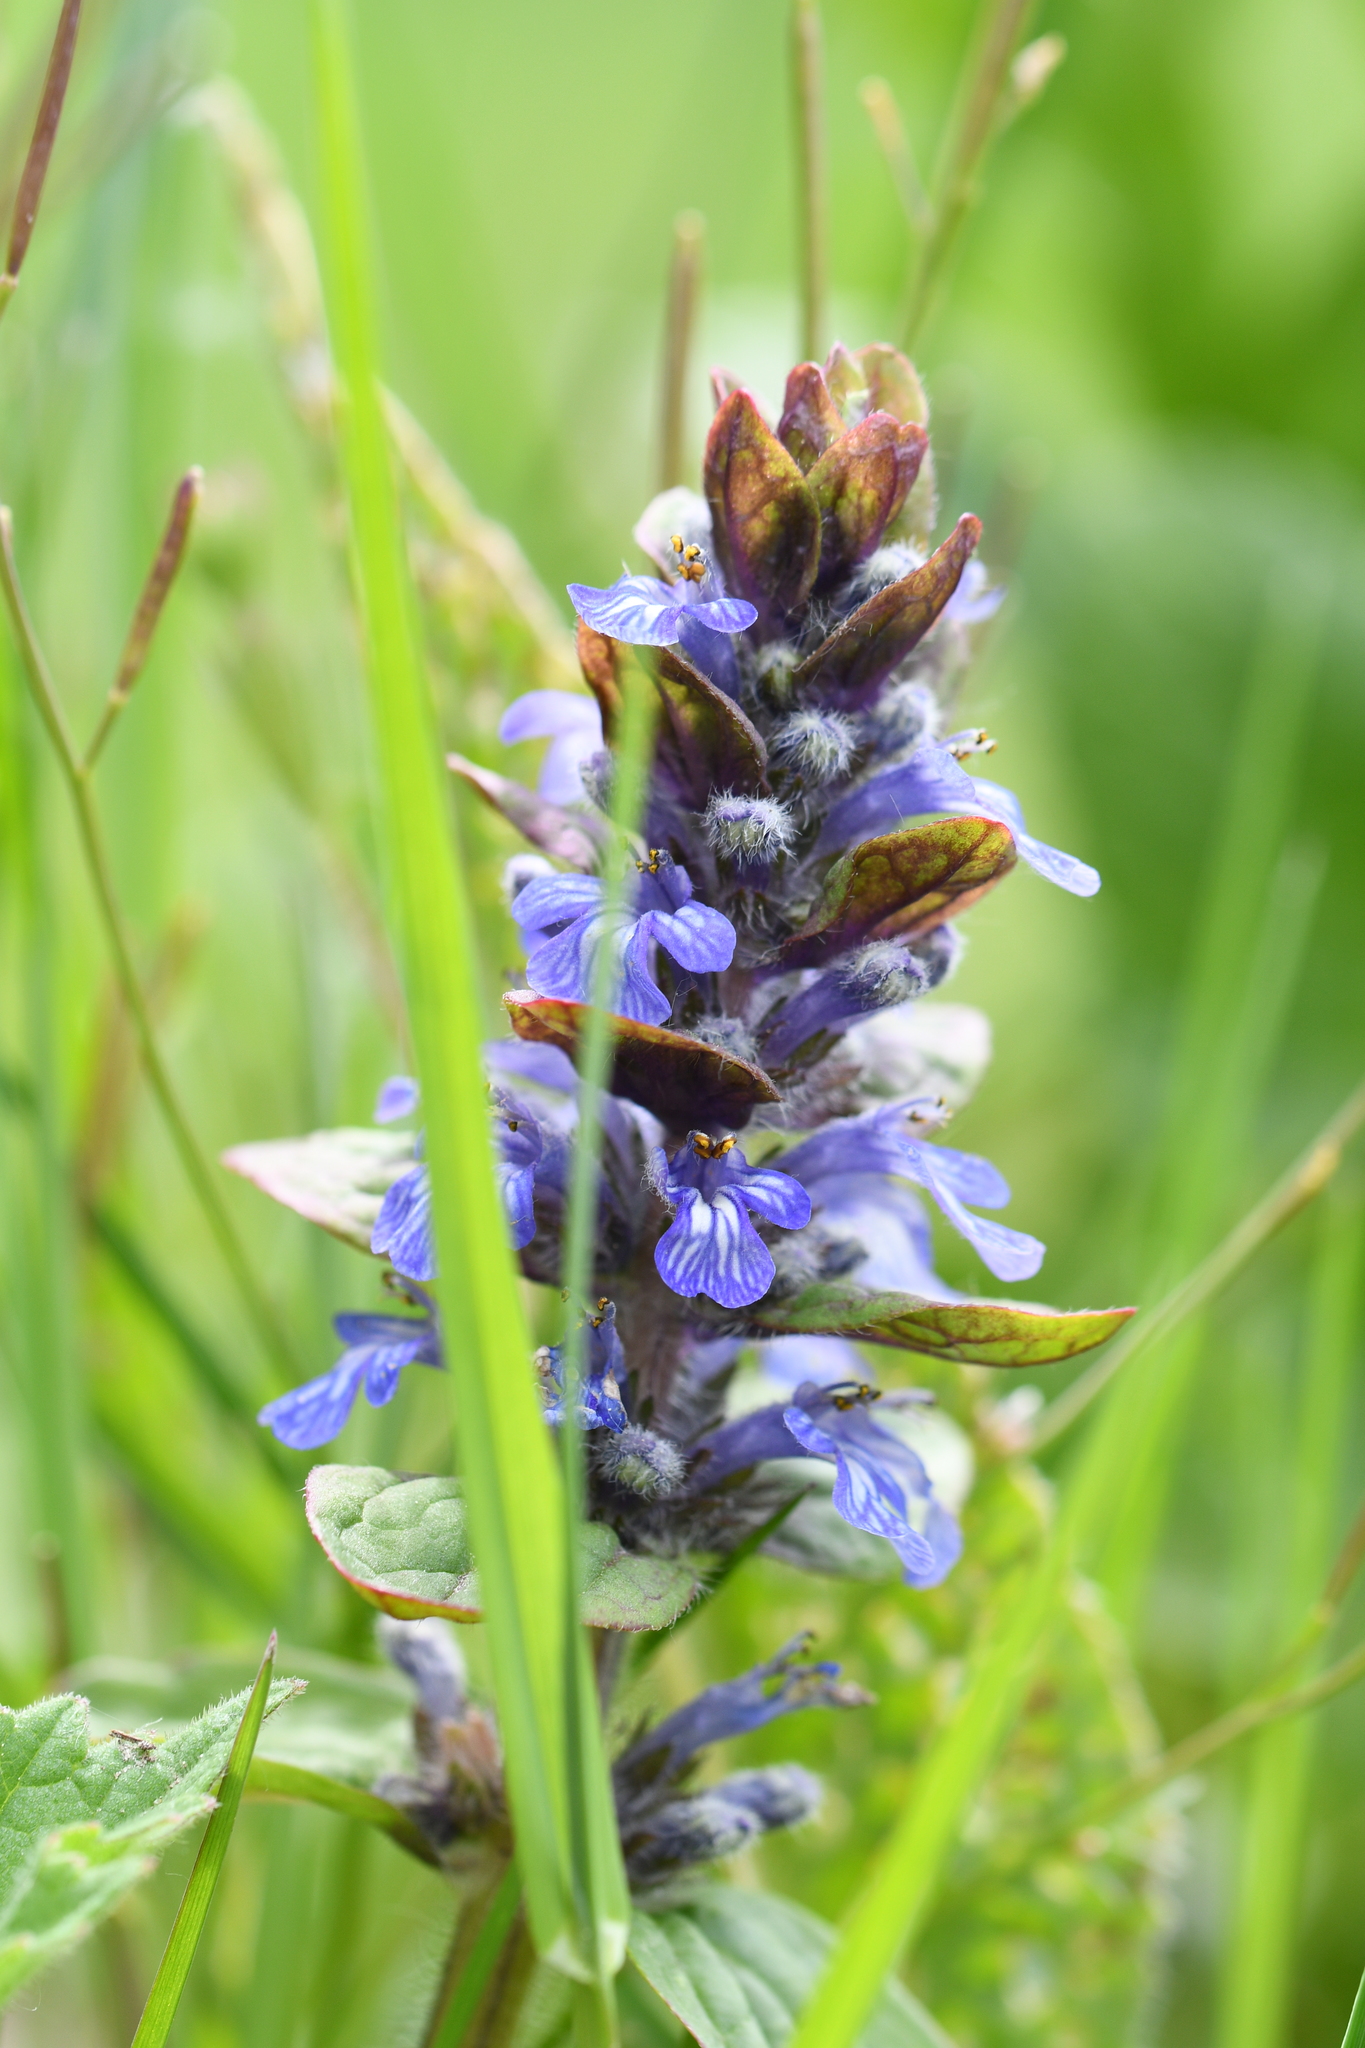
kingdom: Plantae
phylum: Tracheophyta
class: Magnoliopsida
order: Lamiales
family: Lamiaceae
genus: Ajuga
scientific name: Ajuga reptans
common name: Bugle
